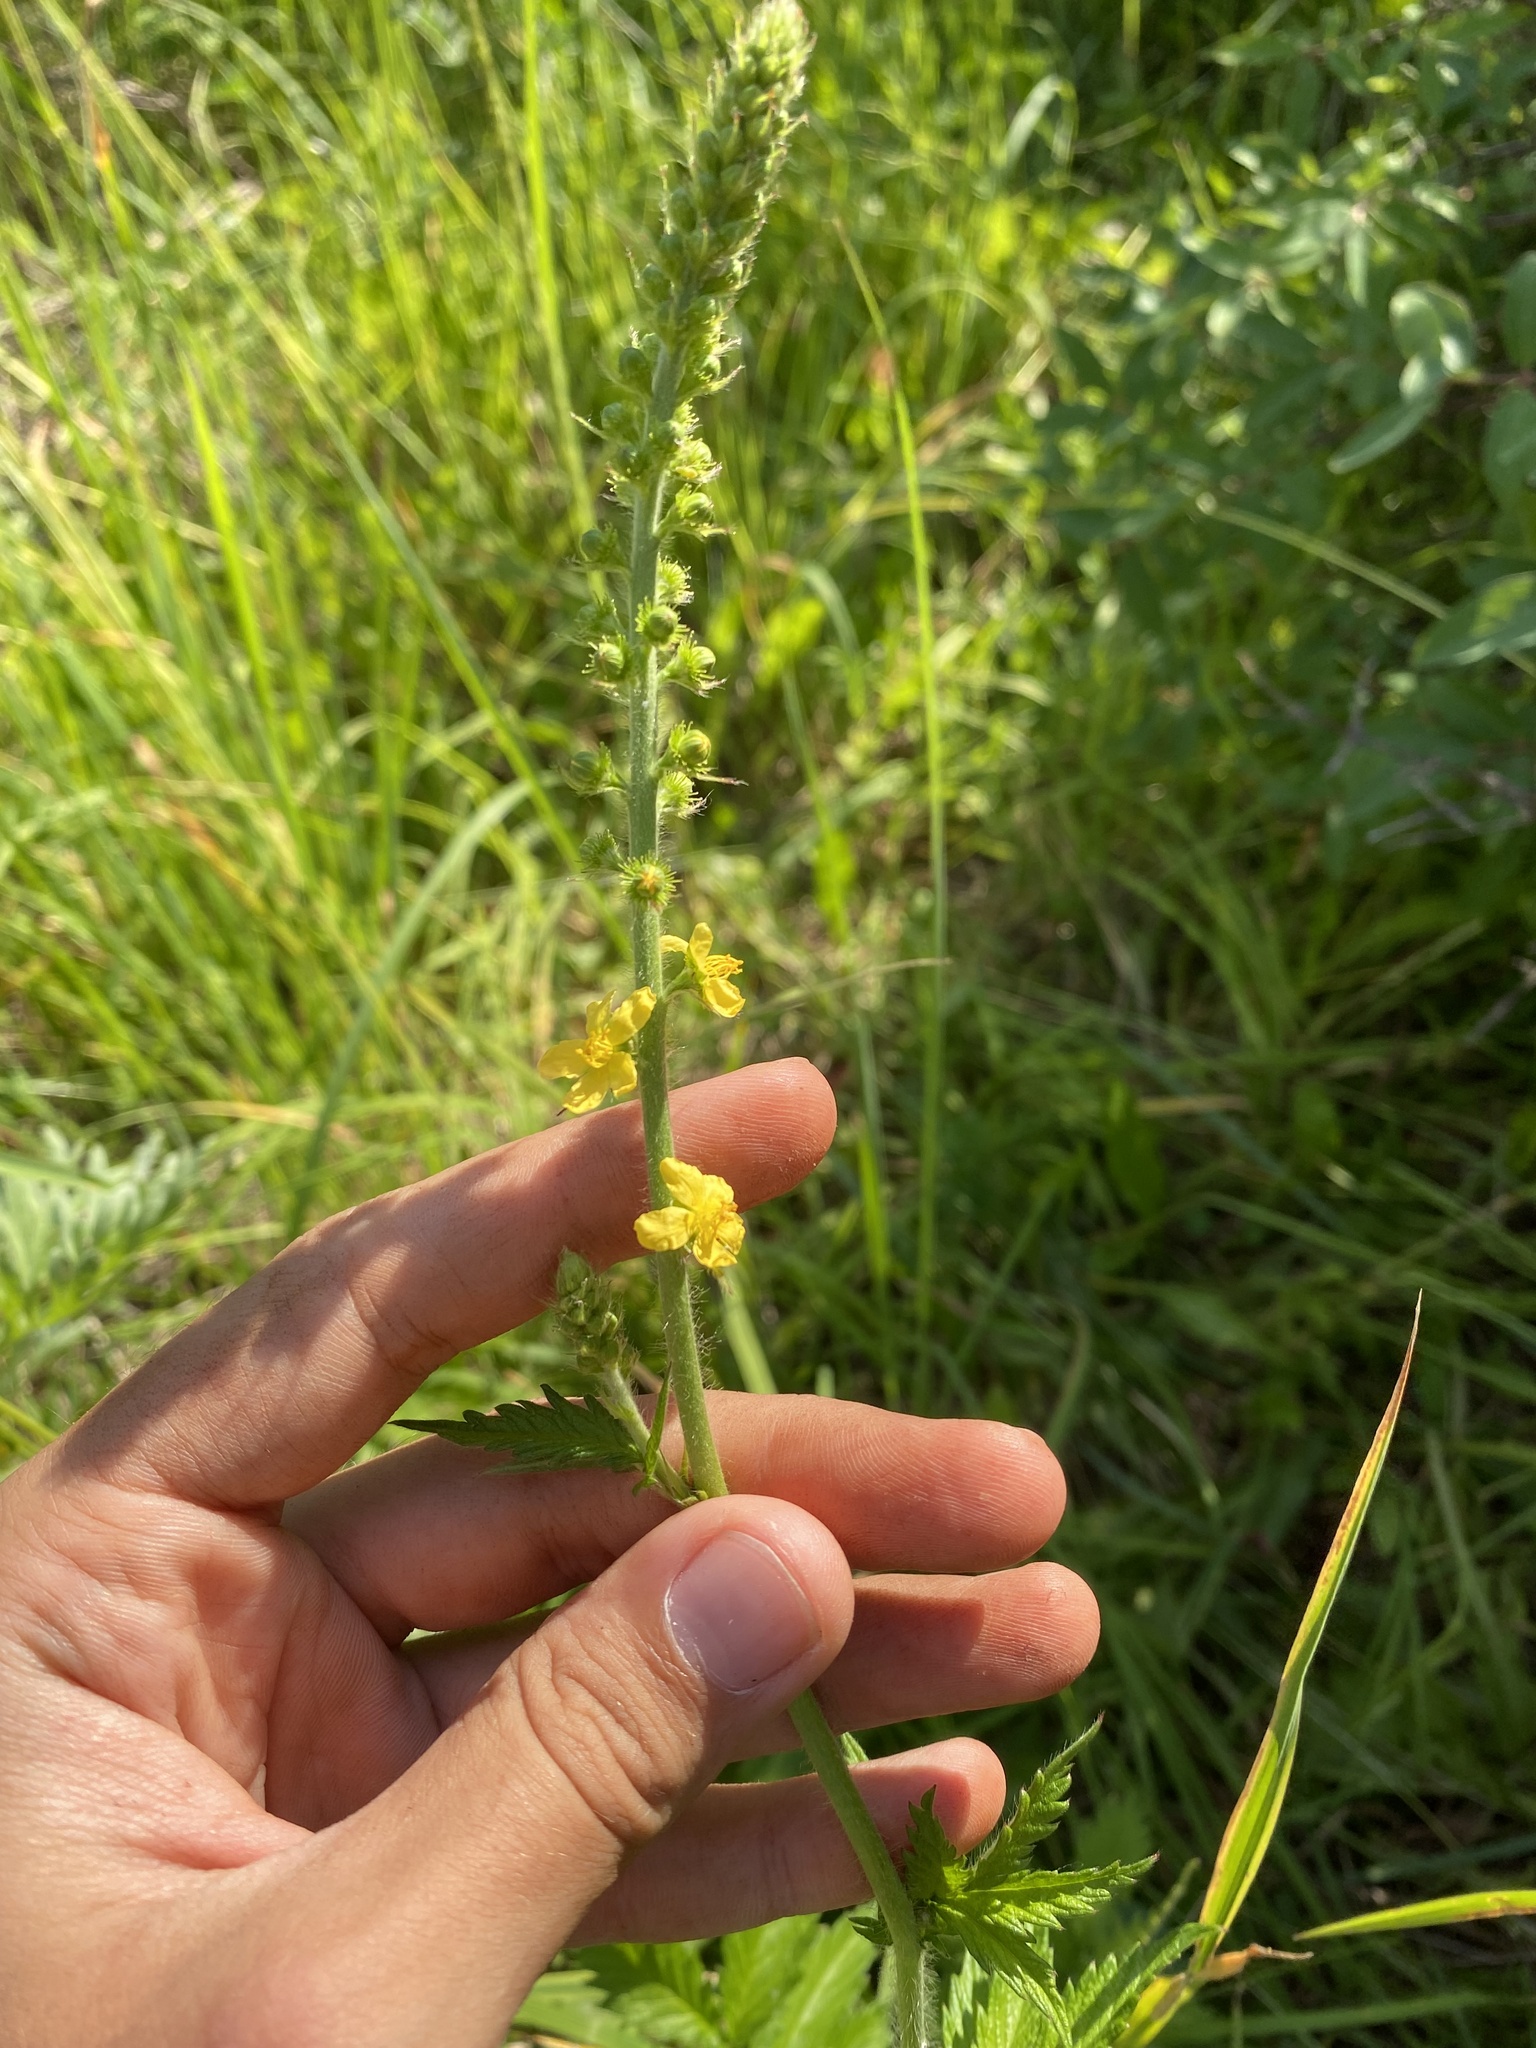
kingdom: Plantae
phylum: Tracheophyta
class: Magnoliopsida
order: Rosales
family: Rosaceae
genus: Agrimonia
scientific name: Agrimonia eupatoria
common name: Agrimony
